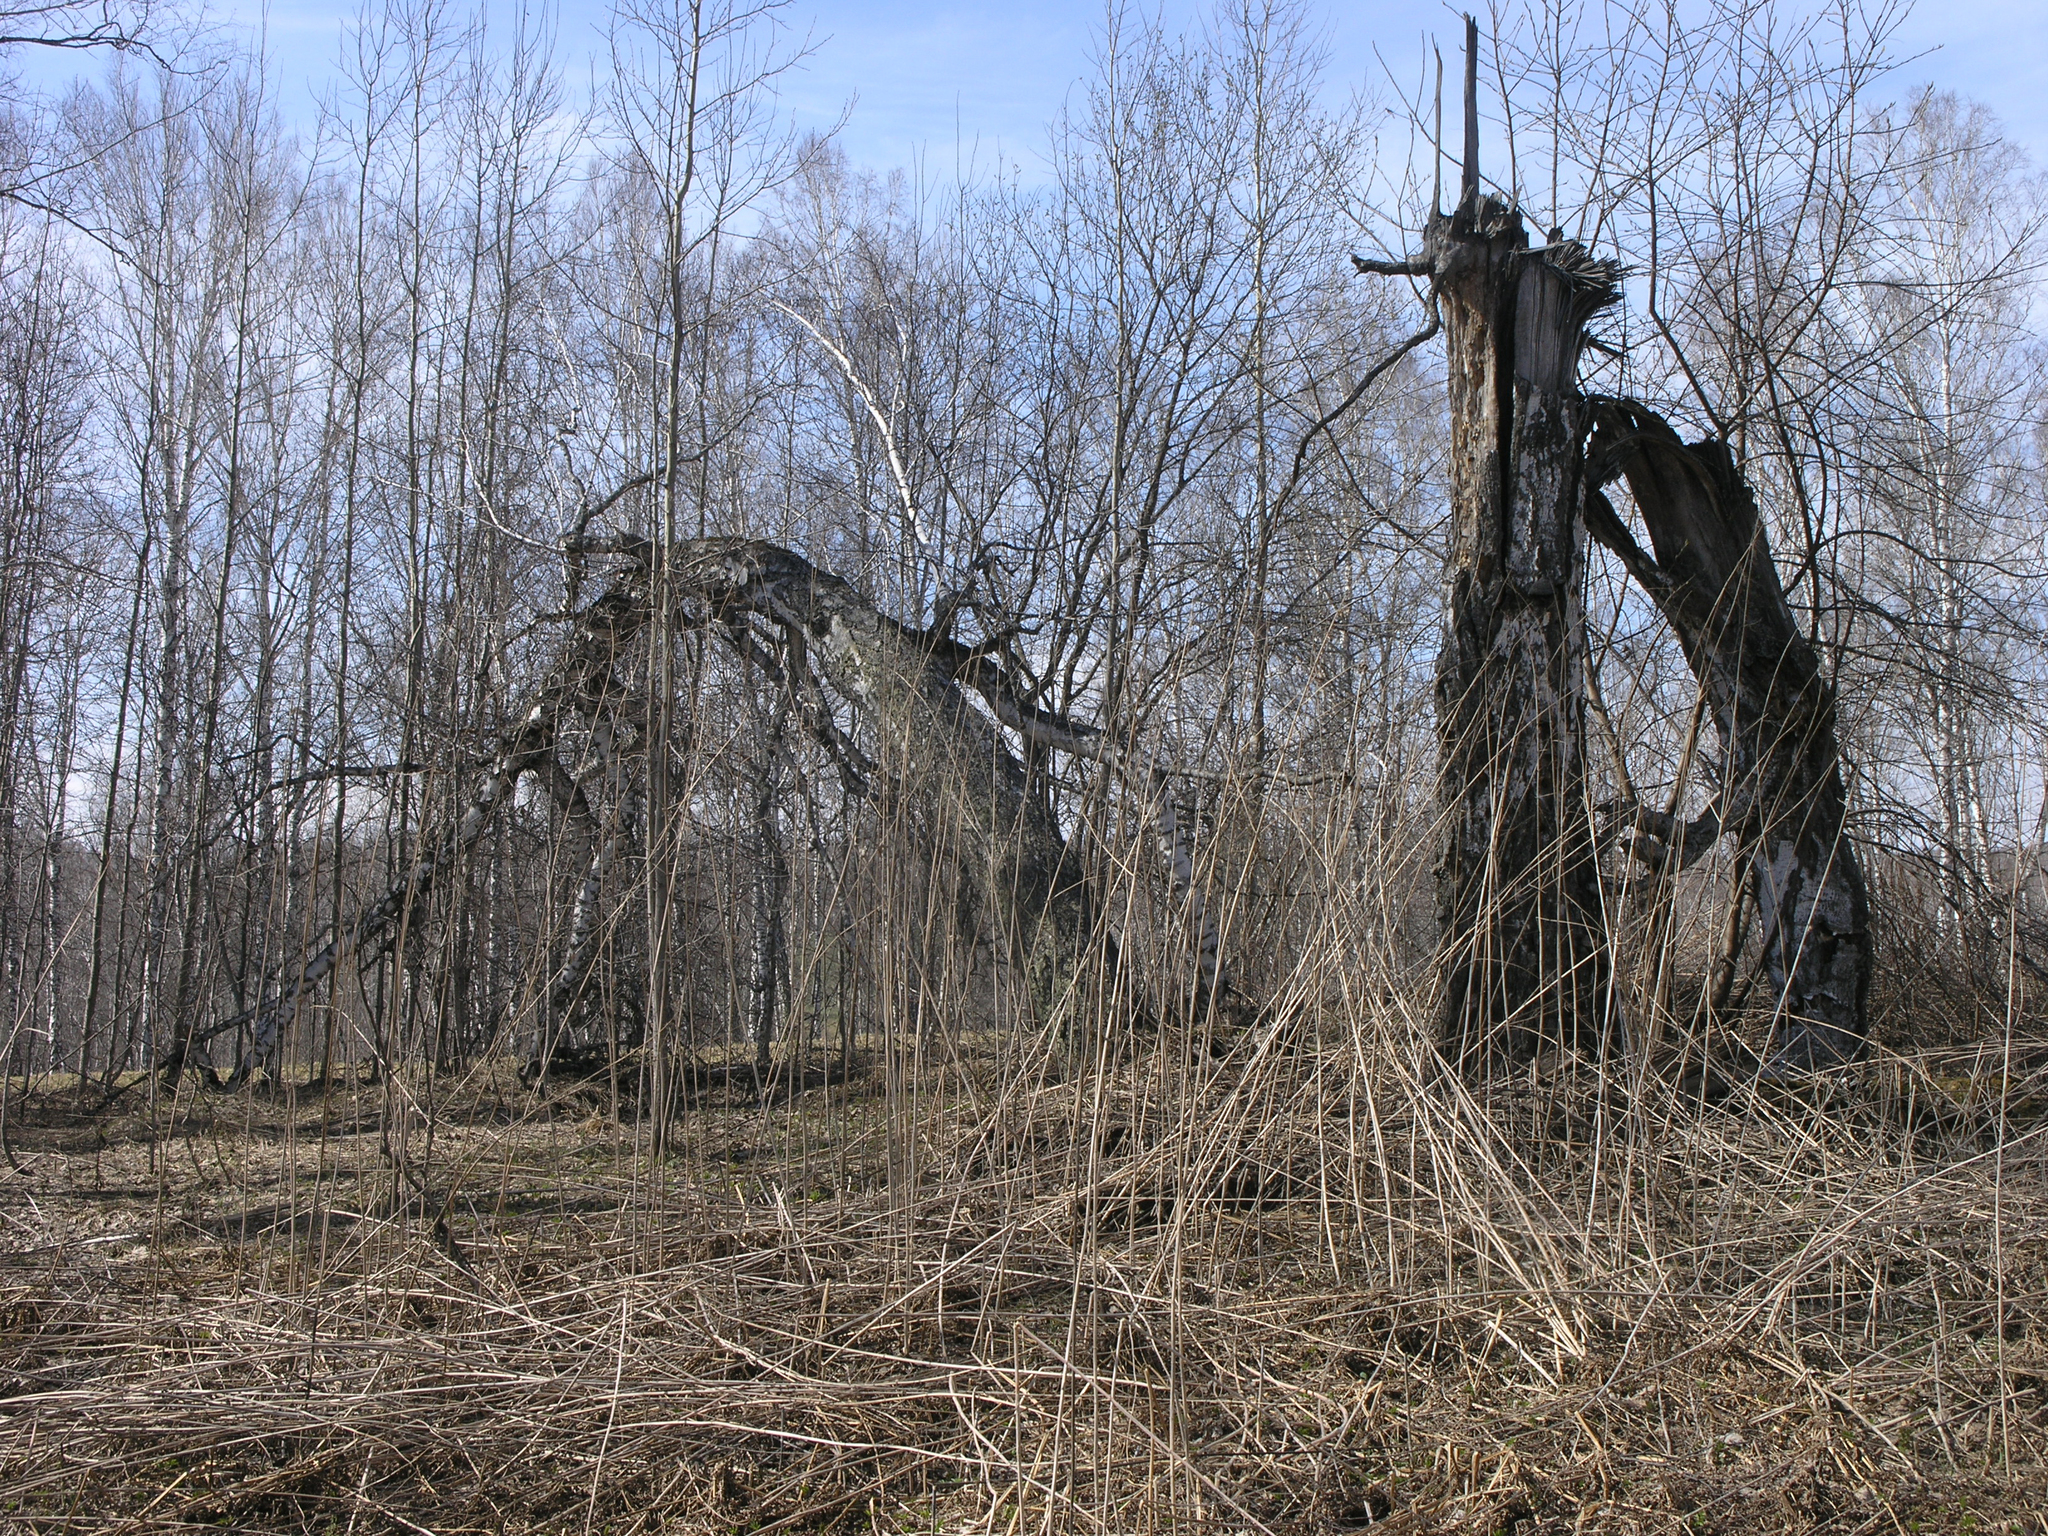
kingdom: Plantae
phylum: Tracheophyta
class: Magnoliopsida
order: Fagales
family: Betulaceae
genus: Betula
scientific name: Betula pendula
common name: Silver birch
